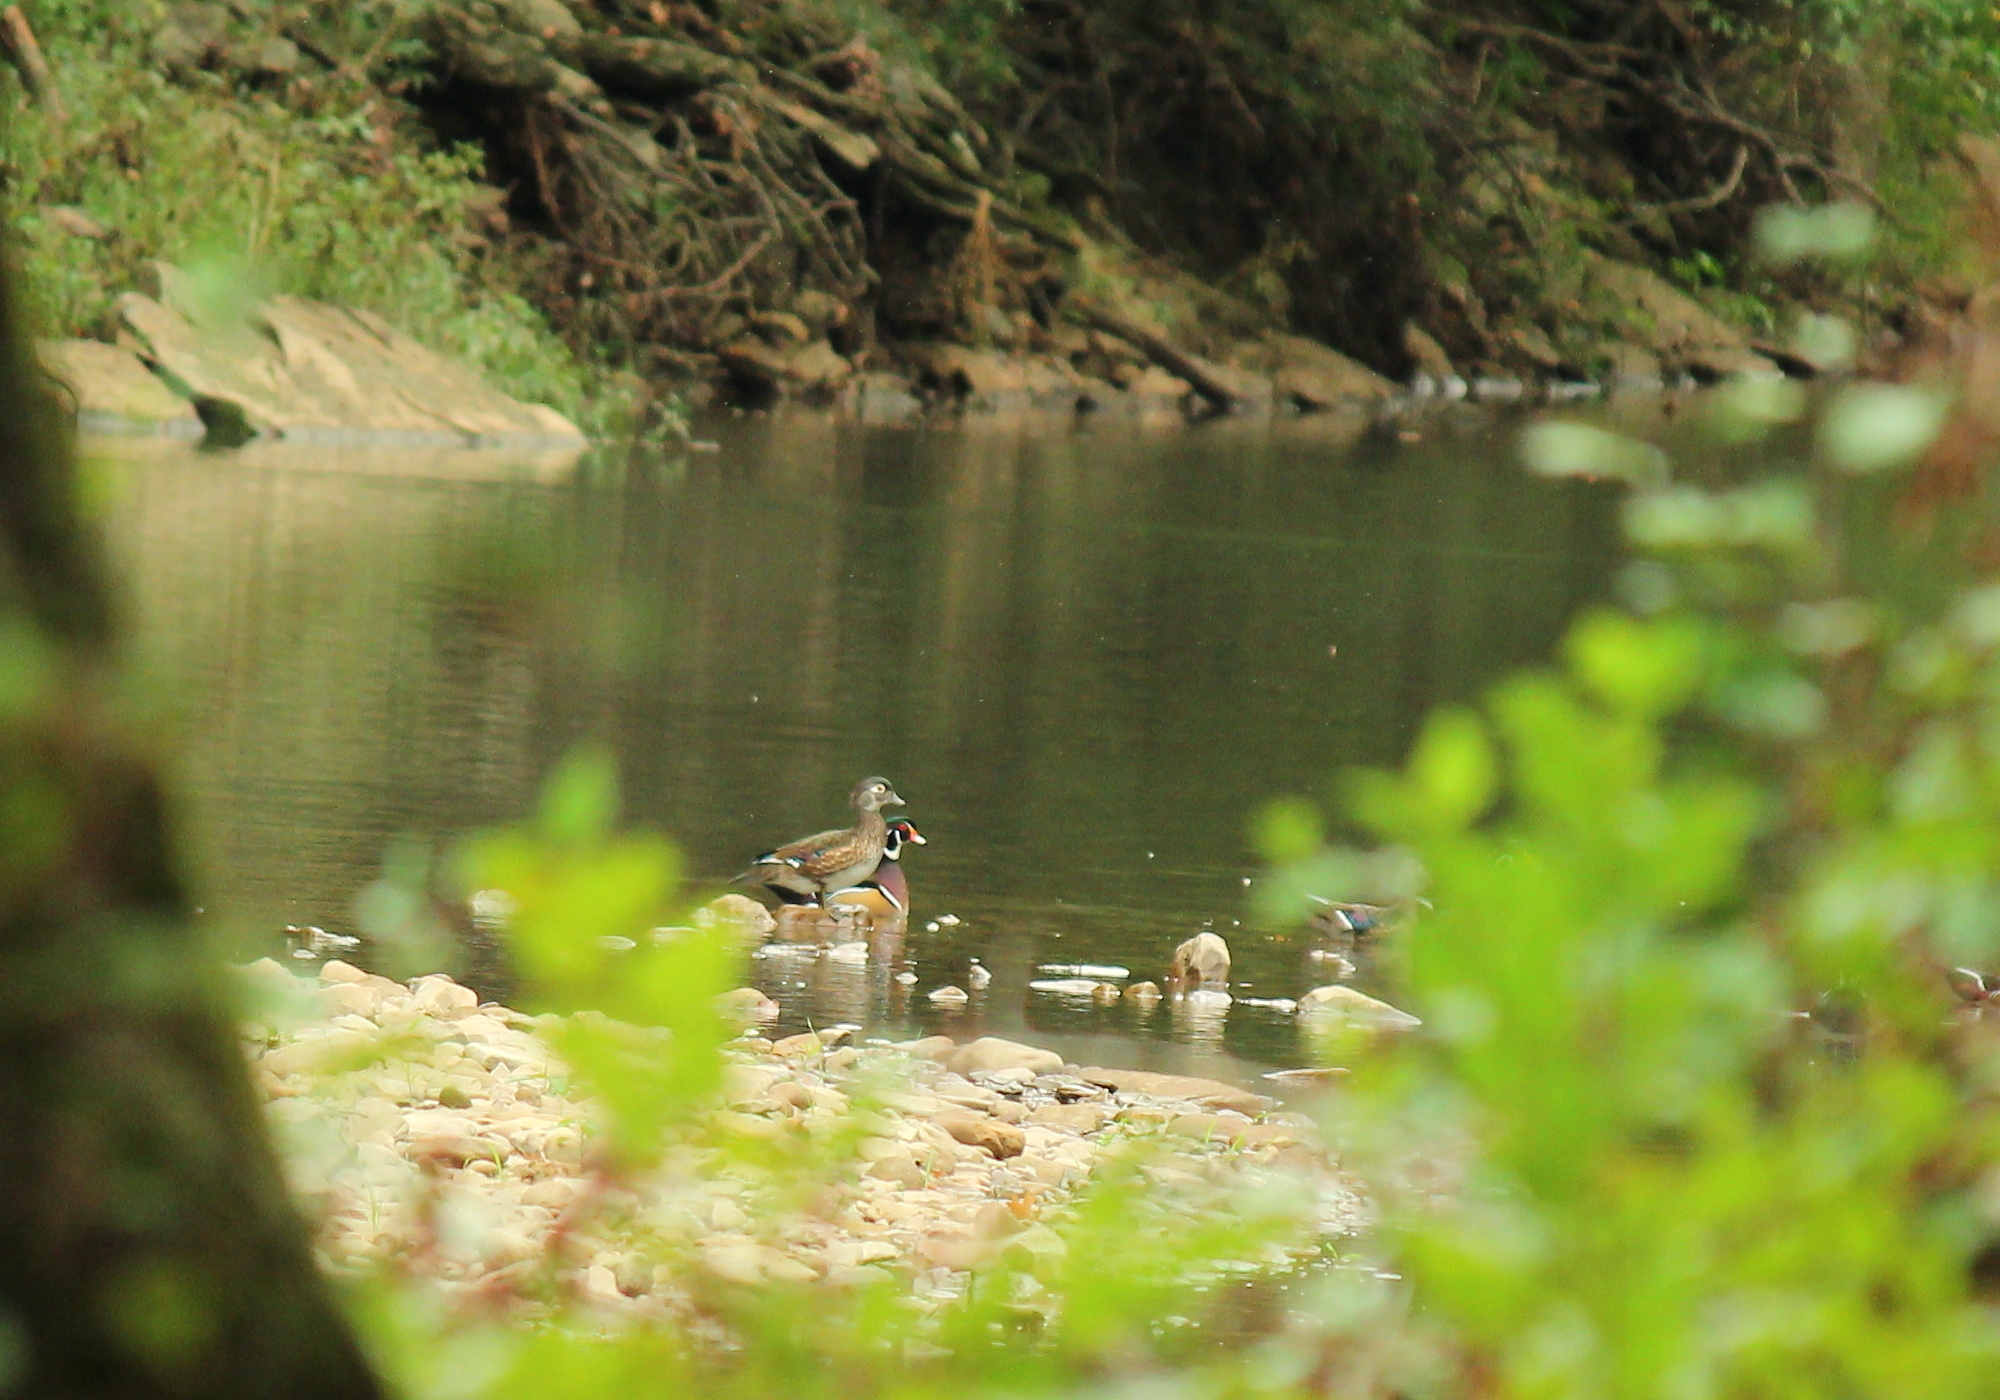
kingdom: Animalia
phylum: Chordata
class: Aves
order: Anseriformes
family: Anatidae
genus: Aix
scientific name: Aix sponsa
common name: Wood duck
